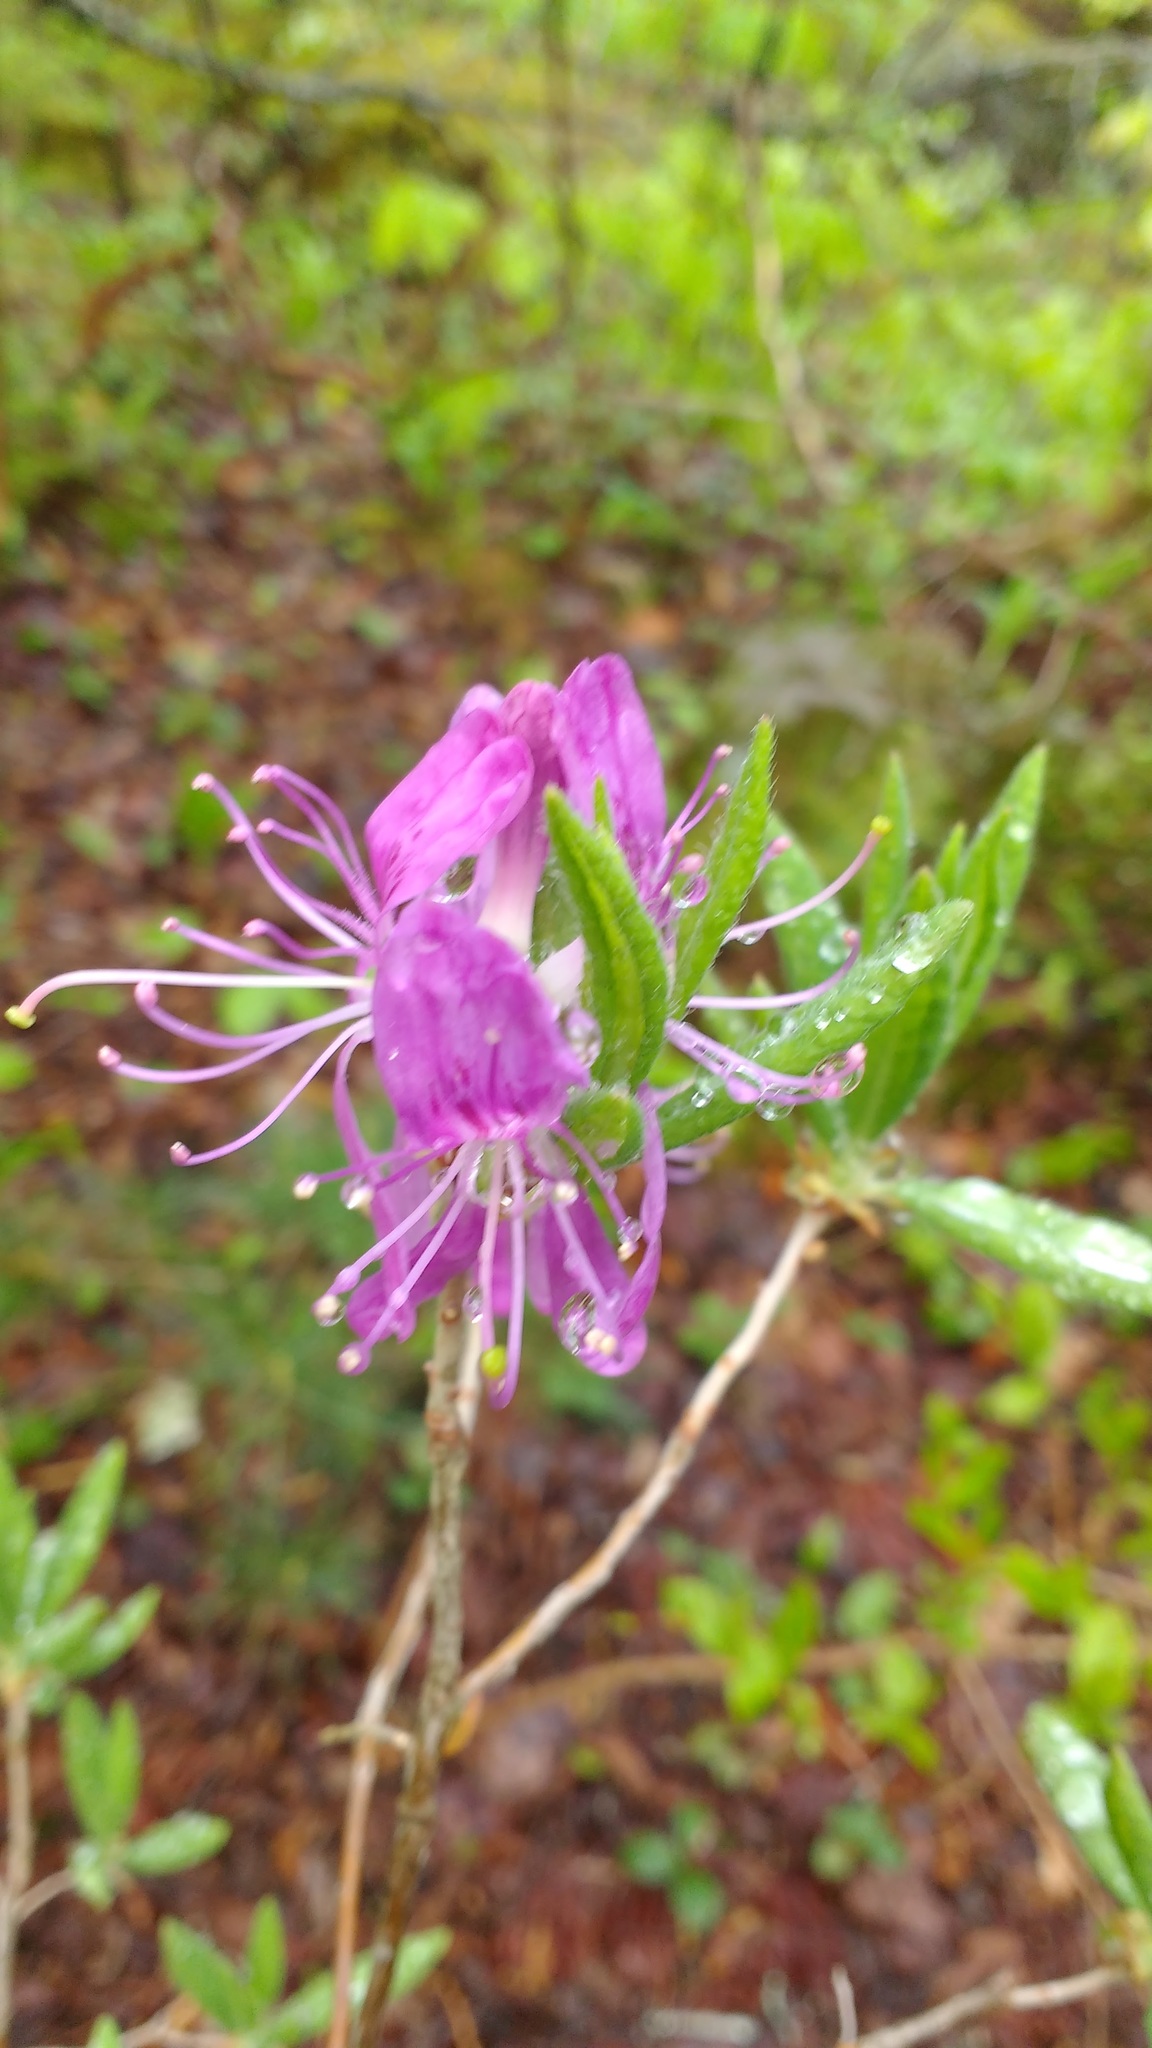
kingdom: Plantae
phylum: Tracheophyta
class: Magnoliopsida
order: Ericales
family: Ericaceae
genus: Rhododendron
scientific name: Rhododendron canadense
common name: Rhodora
